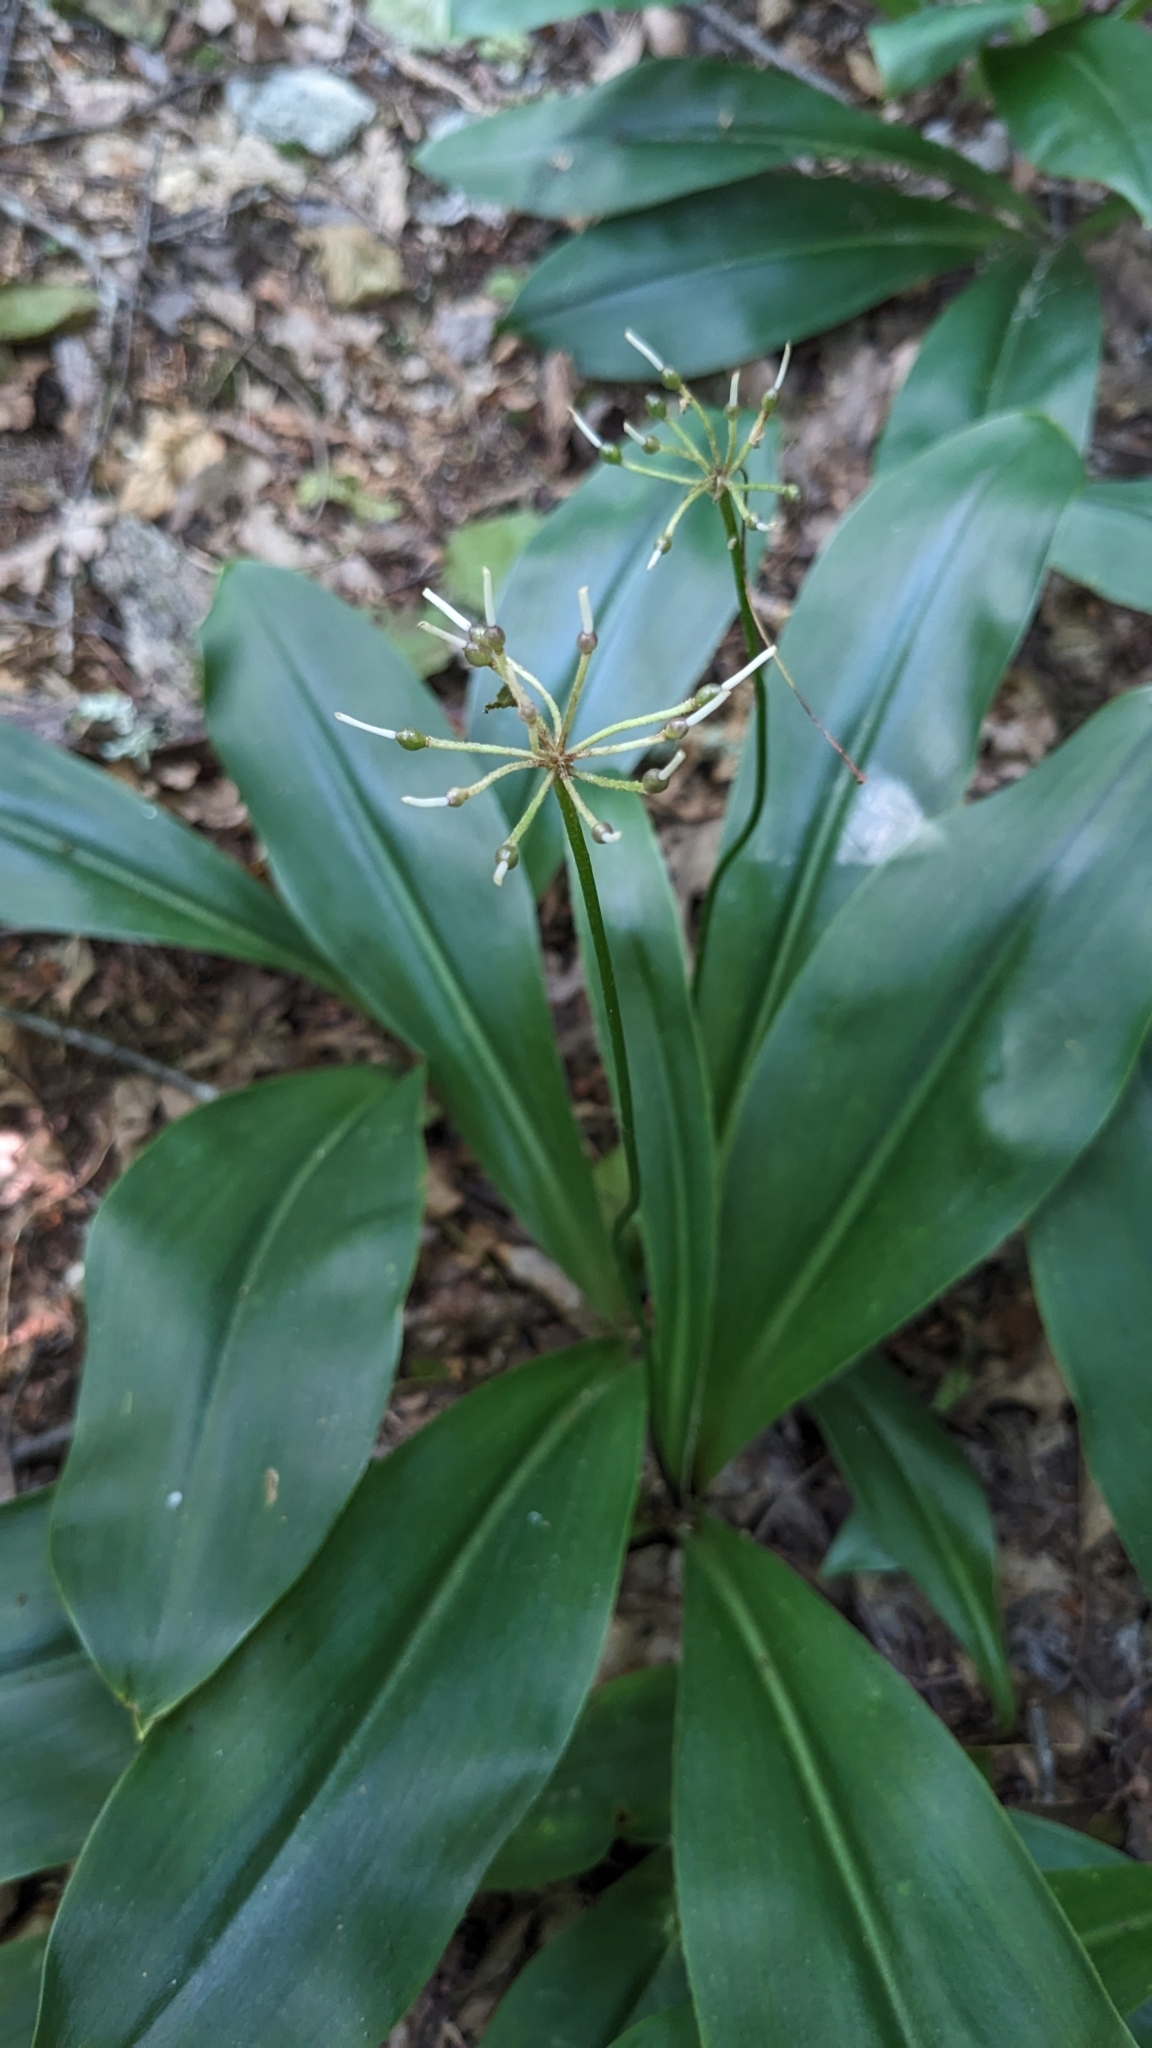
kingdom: Plantae
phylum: Tracheophyta
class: Liliopsida
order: Liliales
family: Liliaceae
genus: Clintonia
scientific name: Clintonia umbellulata
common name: Speckle wood-lily
